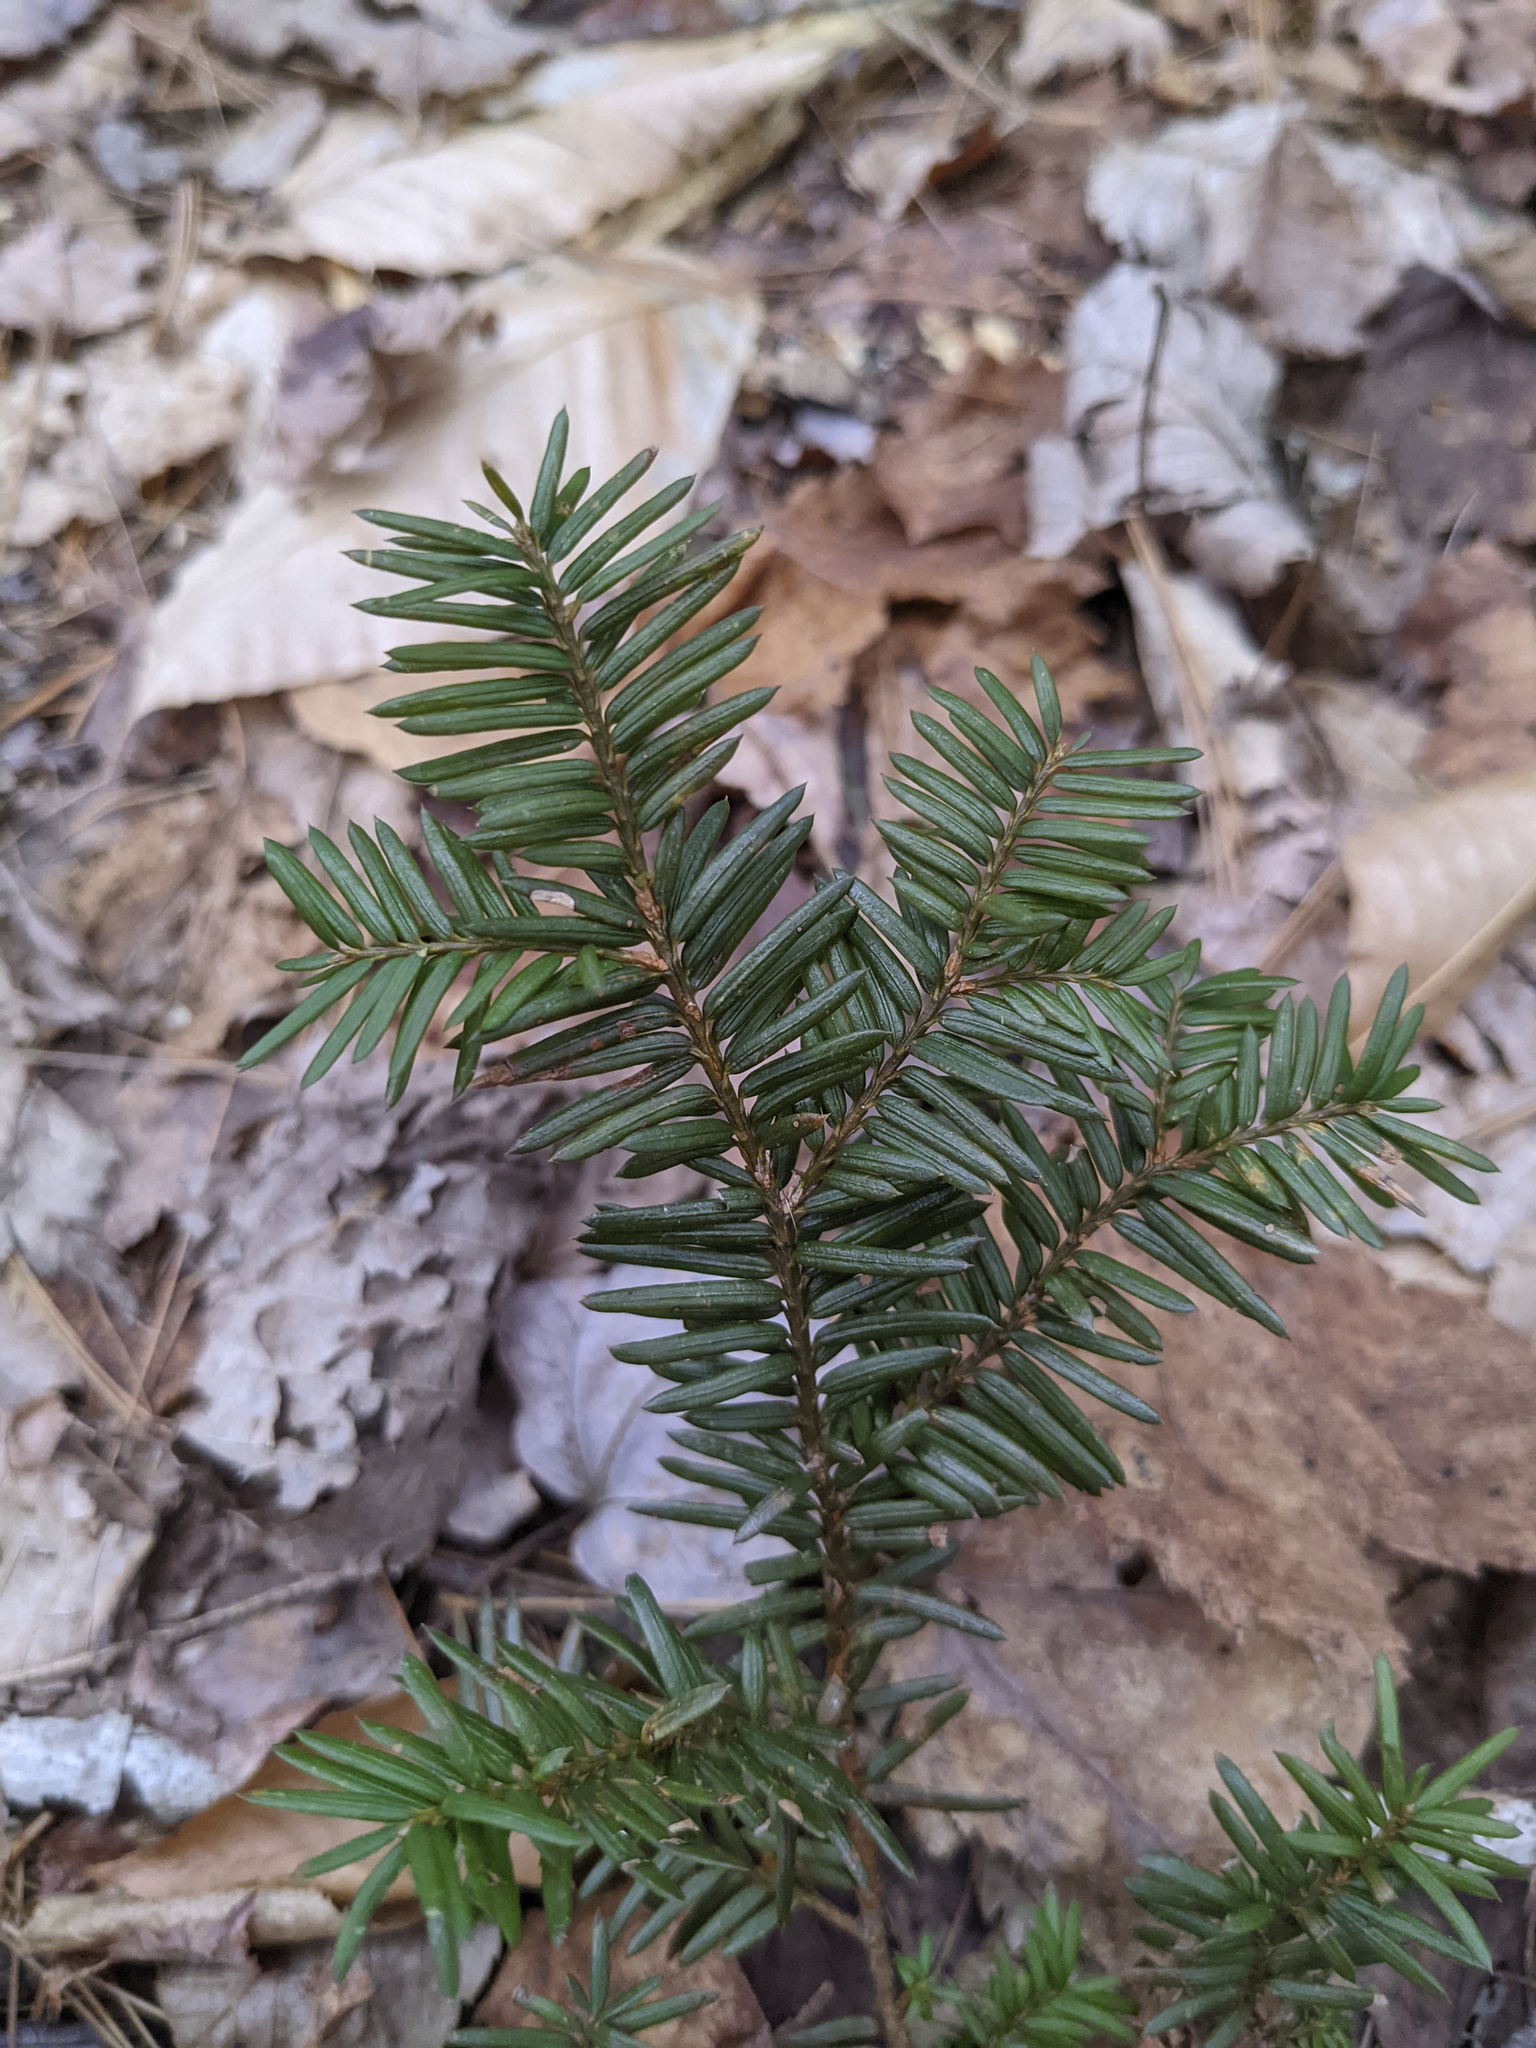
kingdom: Plantae
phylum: Tracheophyta
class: Pinopsida
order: Pinales
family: Taxaceae
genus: Taxus
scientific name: Taxus canadensis
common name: American yew
